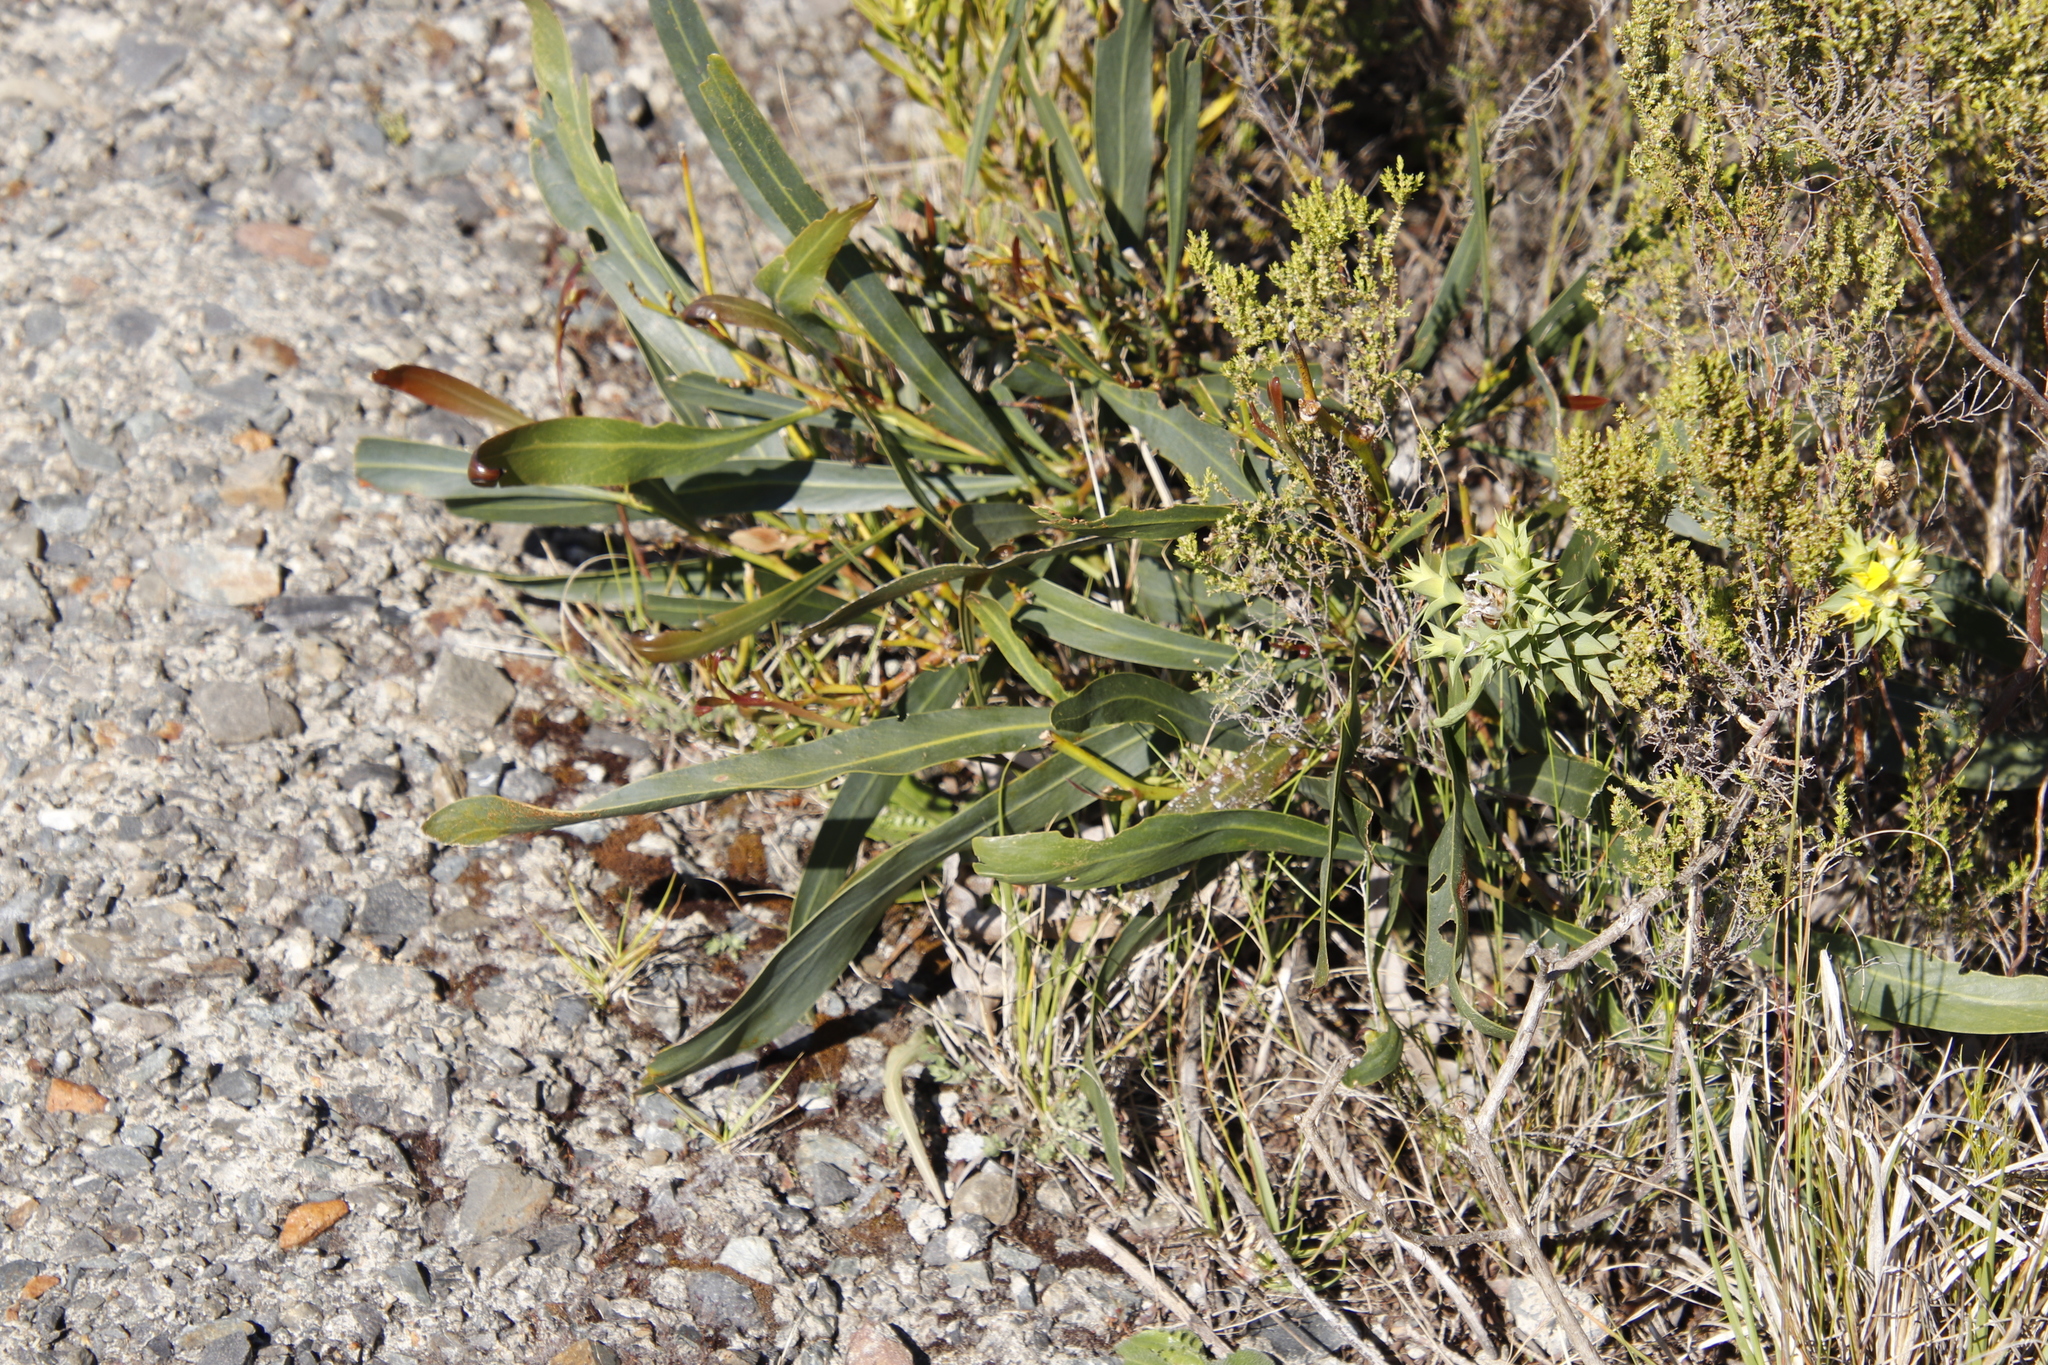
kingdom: Plantae
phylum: Tracheophyta
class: Magnoliopsida
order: Fabales
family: Fabaceae
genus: Acacia
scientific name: Acacia saligna
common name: Orange wattle
